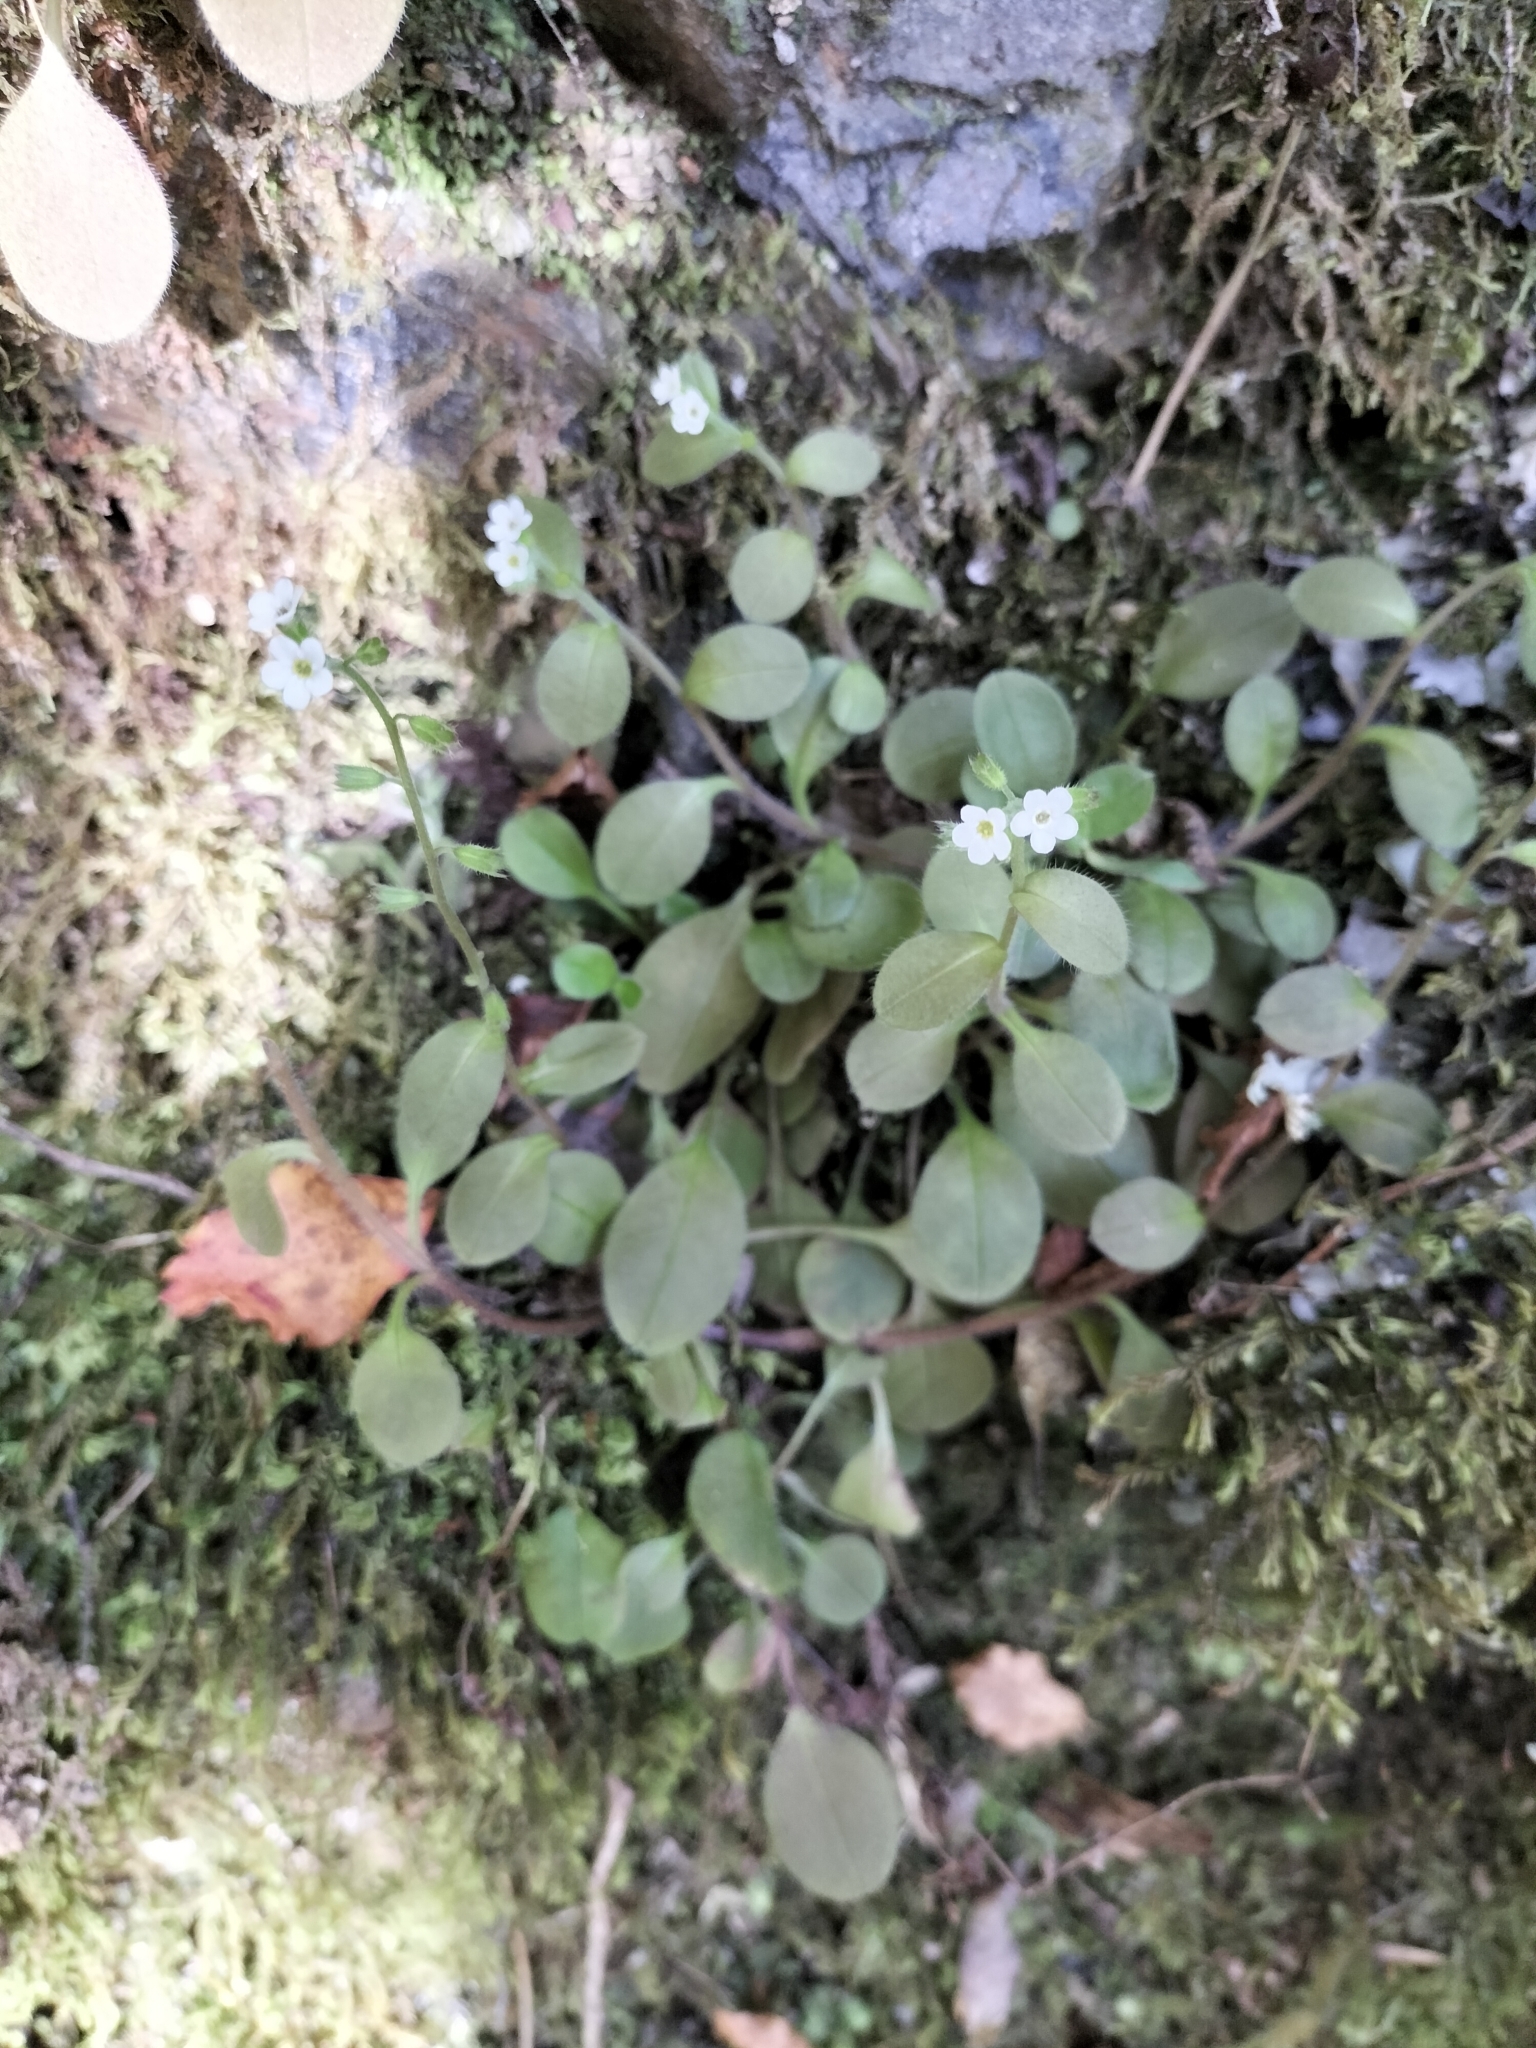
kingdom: Plantae
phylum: Tracheophyta
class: Magnoliopsida
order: Boraginales
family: Boraginaceae
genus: Myosotis
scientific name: Myosotis forsteri
